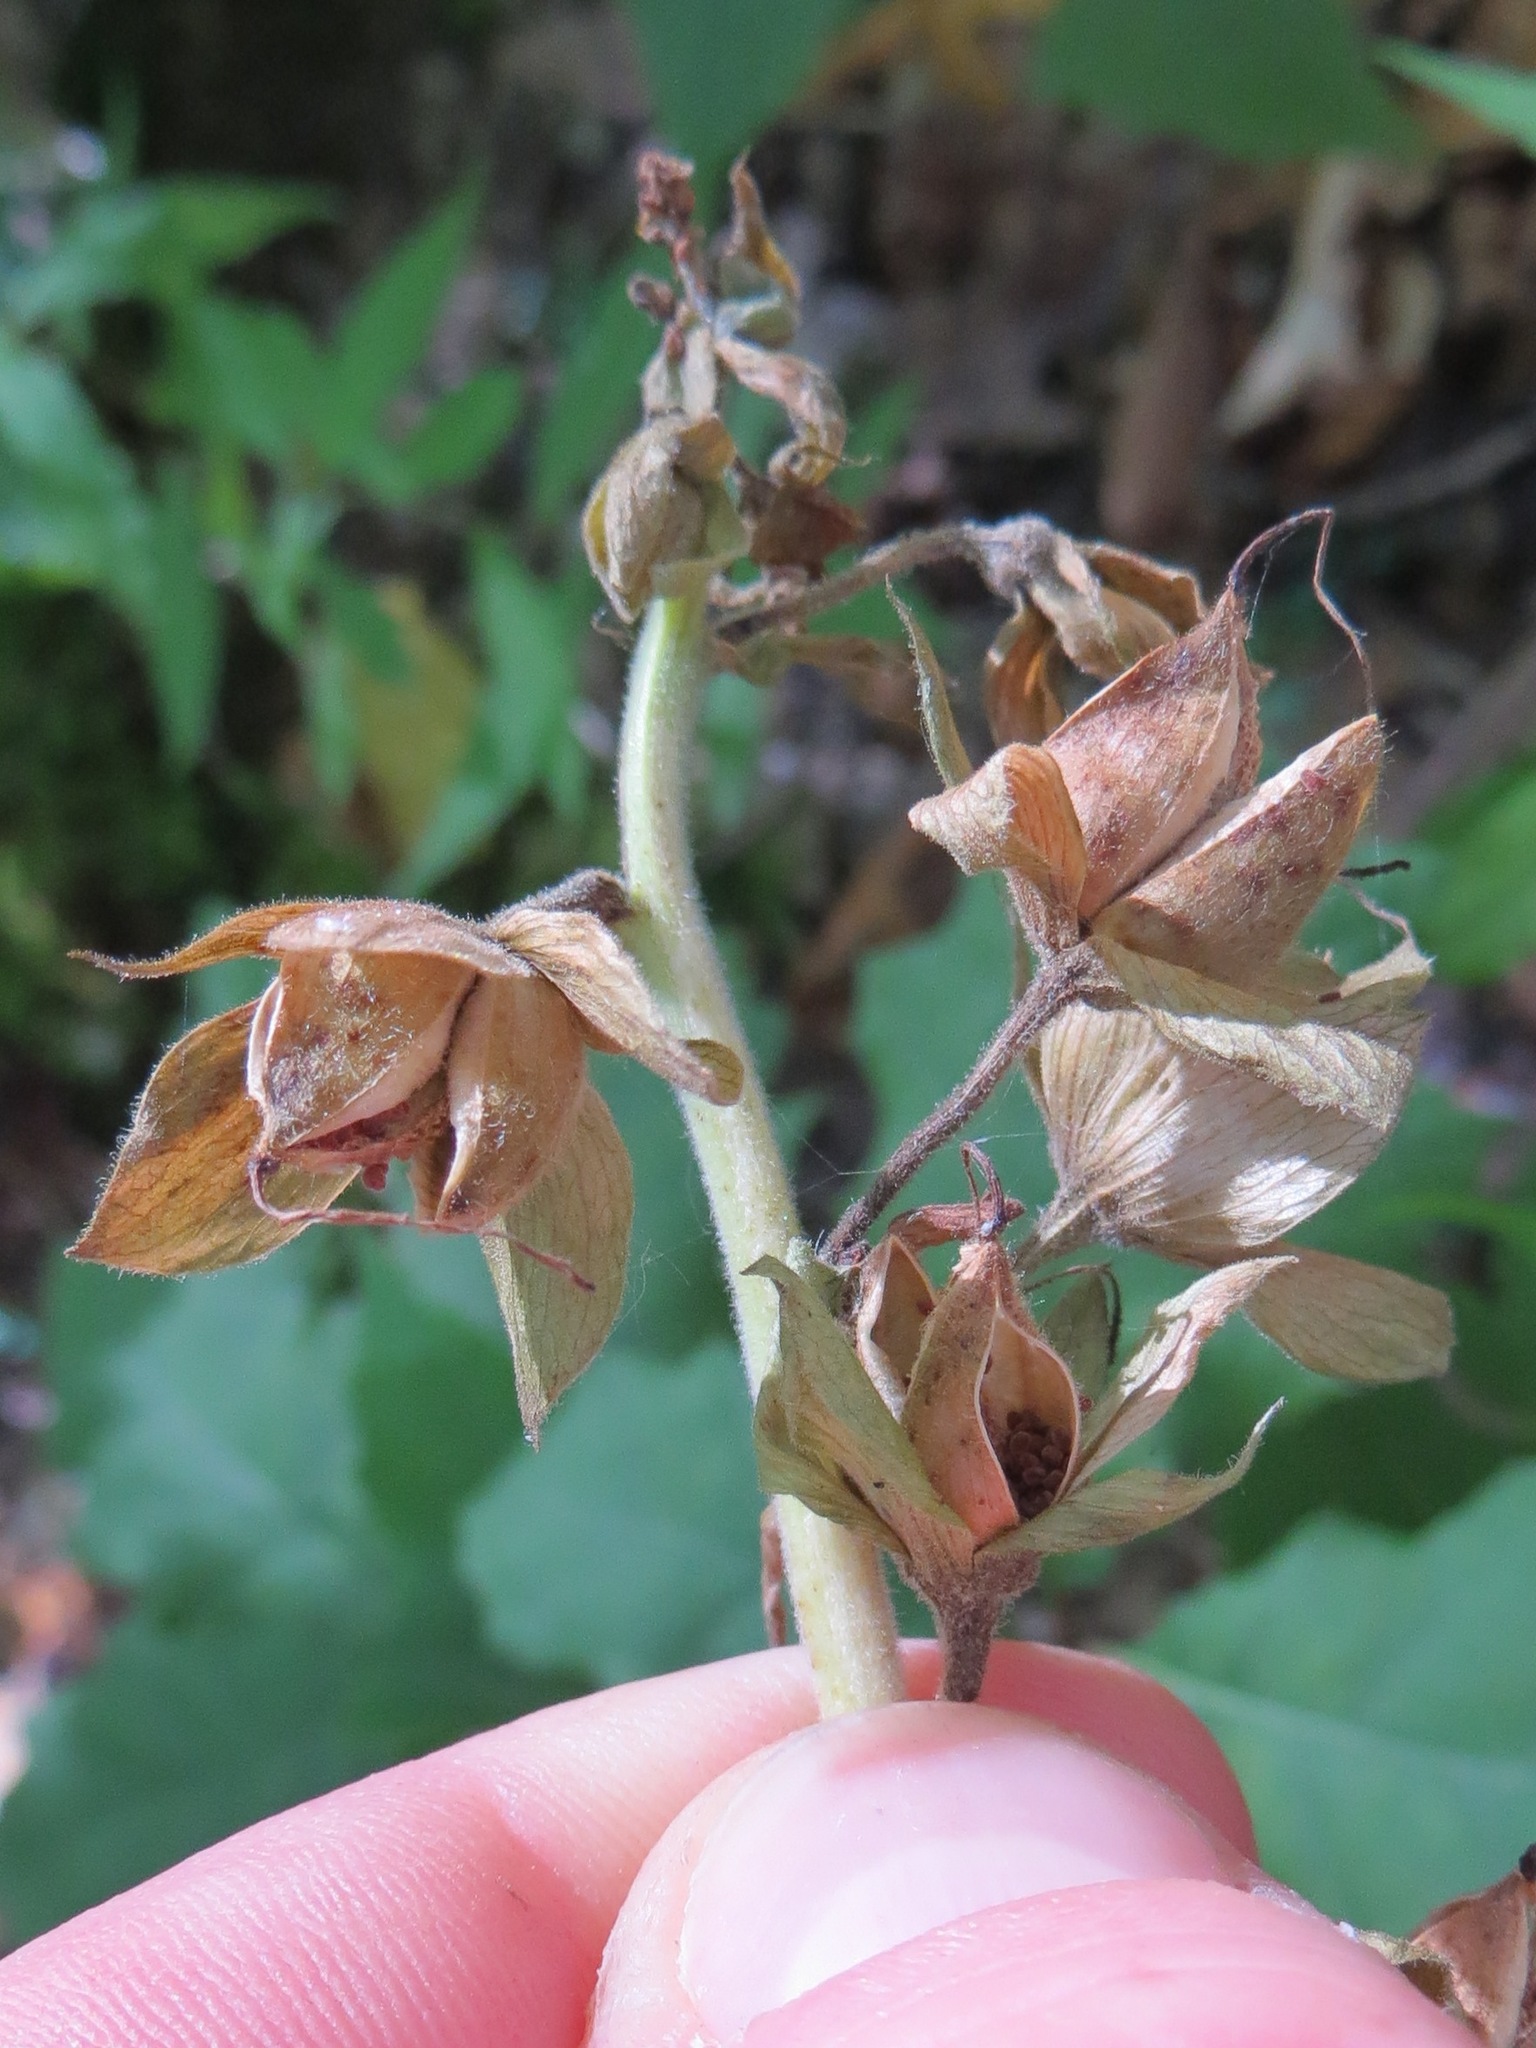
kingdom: Plantae
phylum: Tracheophyta
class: Magnoliopsida
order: Lamiales
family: Plantaginaceae
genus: Digitalis
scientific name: Digitalis purpurea
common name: Foxglove
